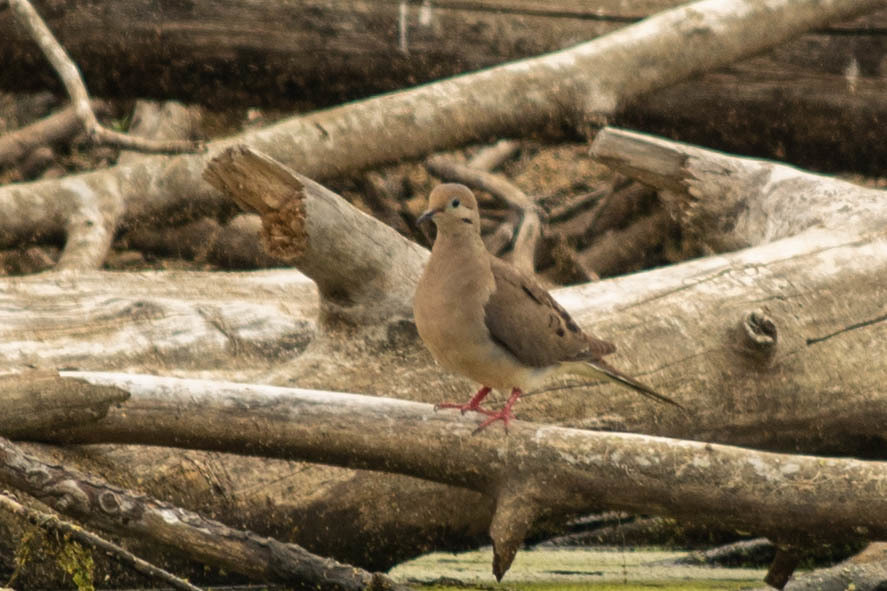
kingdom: Animalia
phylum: Chordata
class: Aves
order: Columbiformes
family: Columbidae
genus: Zenaida
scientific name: Zenaida macroura
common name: Mourning dove
